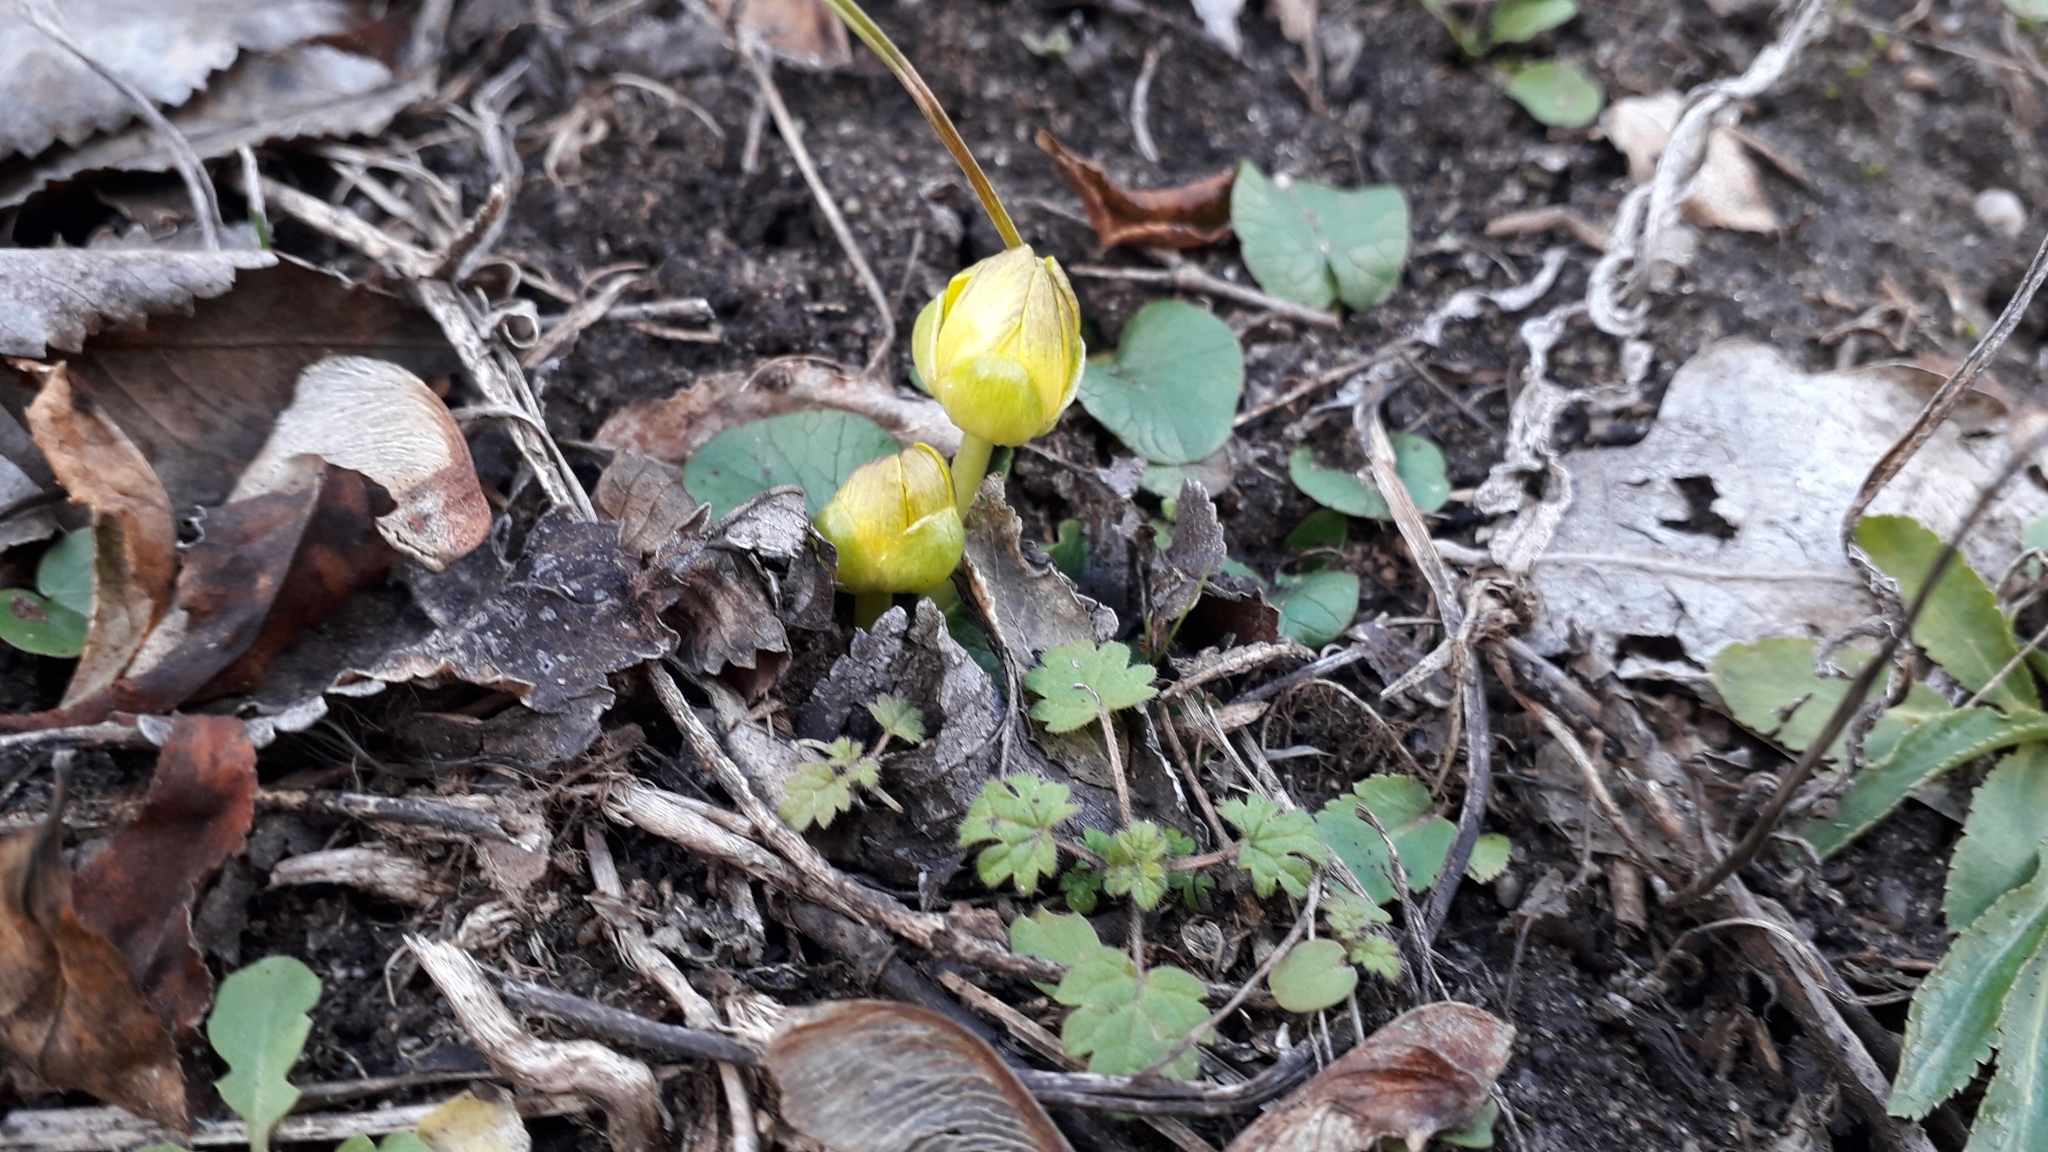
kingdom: Plantae
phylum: Tracheophyta
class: Magnoliopsida
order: Ranunculales
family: Ranunculaceae
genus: Ficaria
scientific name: Ficaria verna
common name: Lesser celandine
